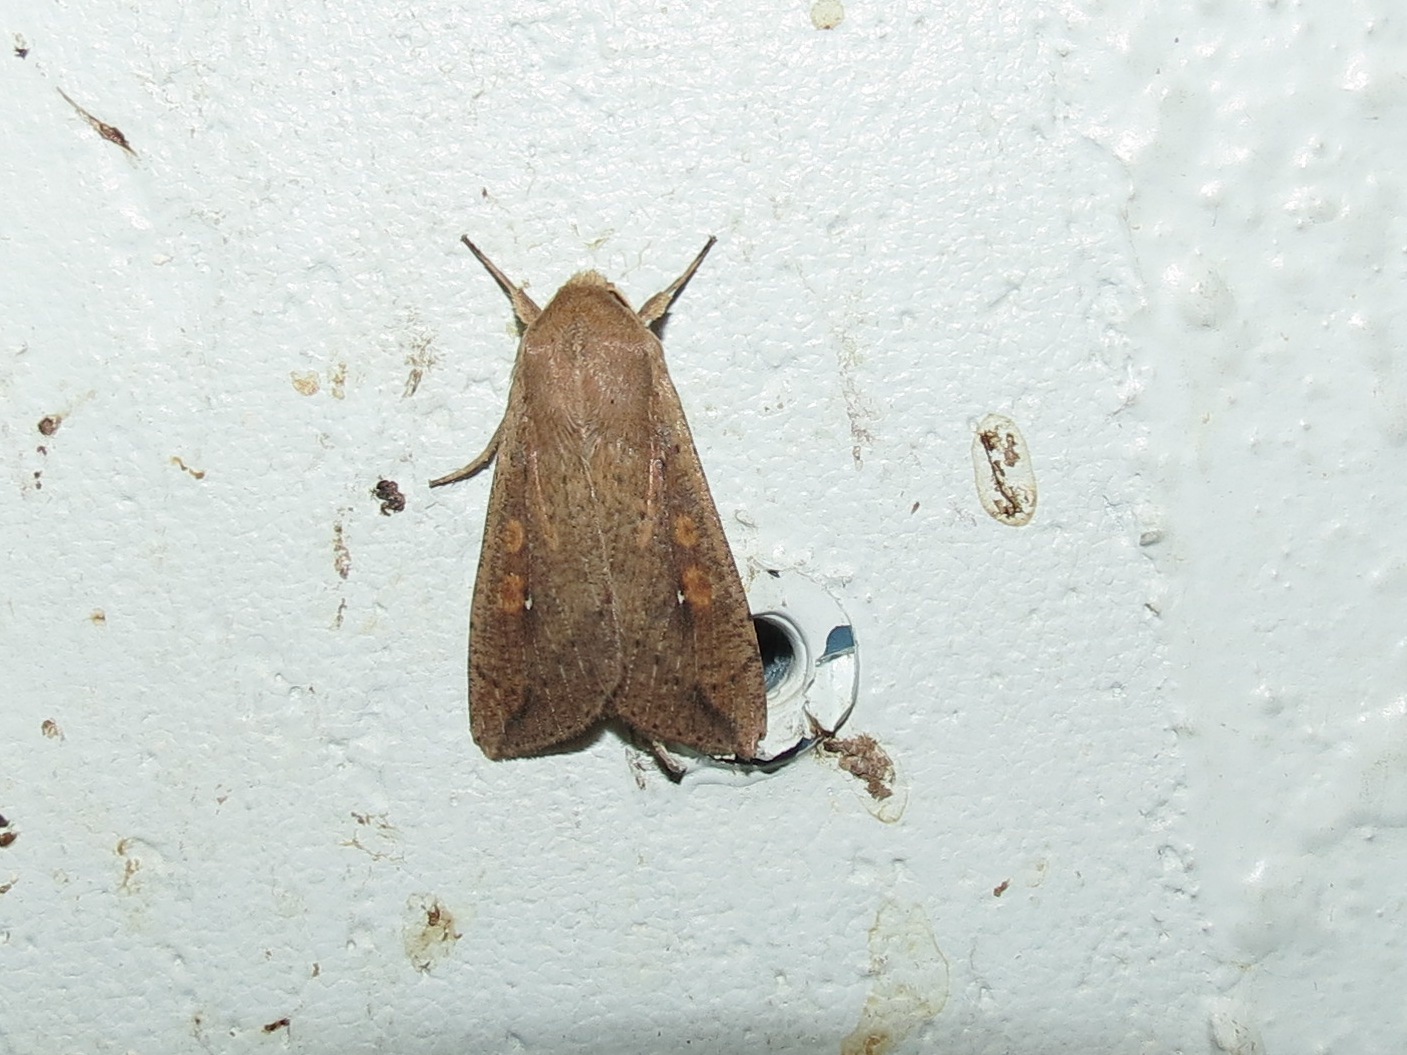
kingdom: Animalia
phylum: Arthropoda
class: Insecta
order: Lepidoptera
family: Noctuidae
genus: Mythimna
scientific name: Mythimna unipuncta
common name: White-speck
